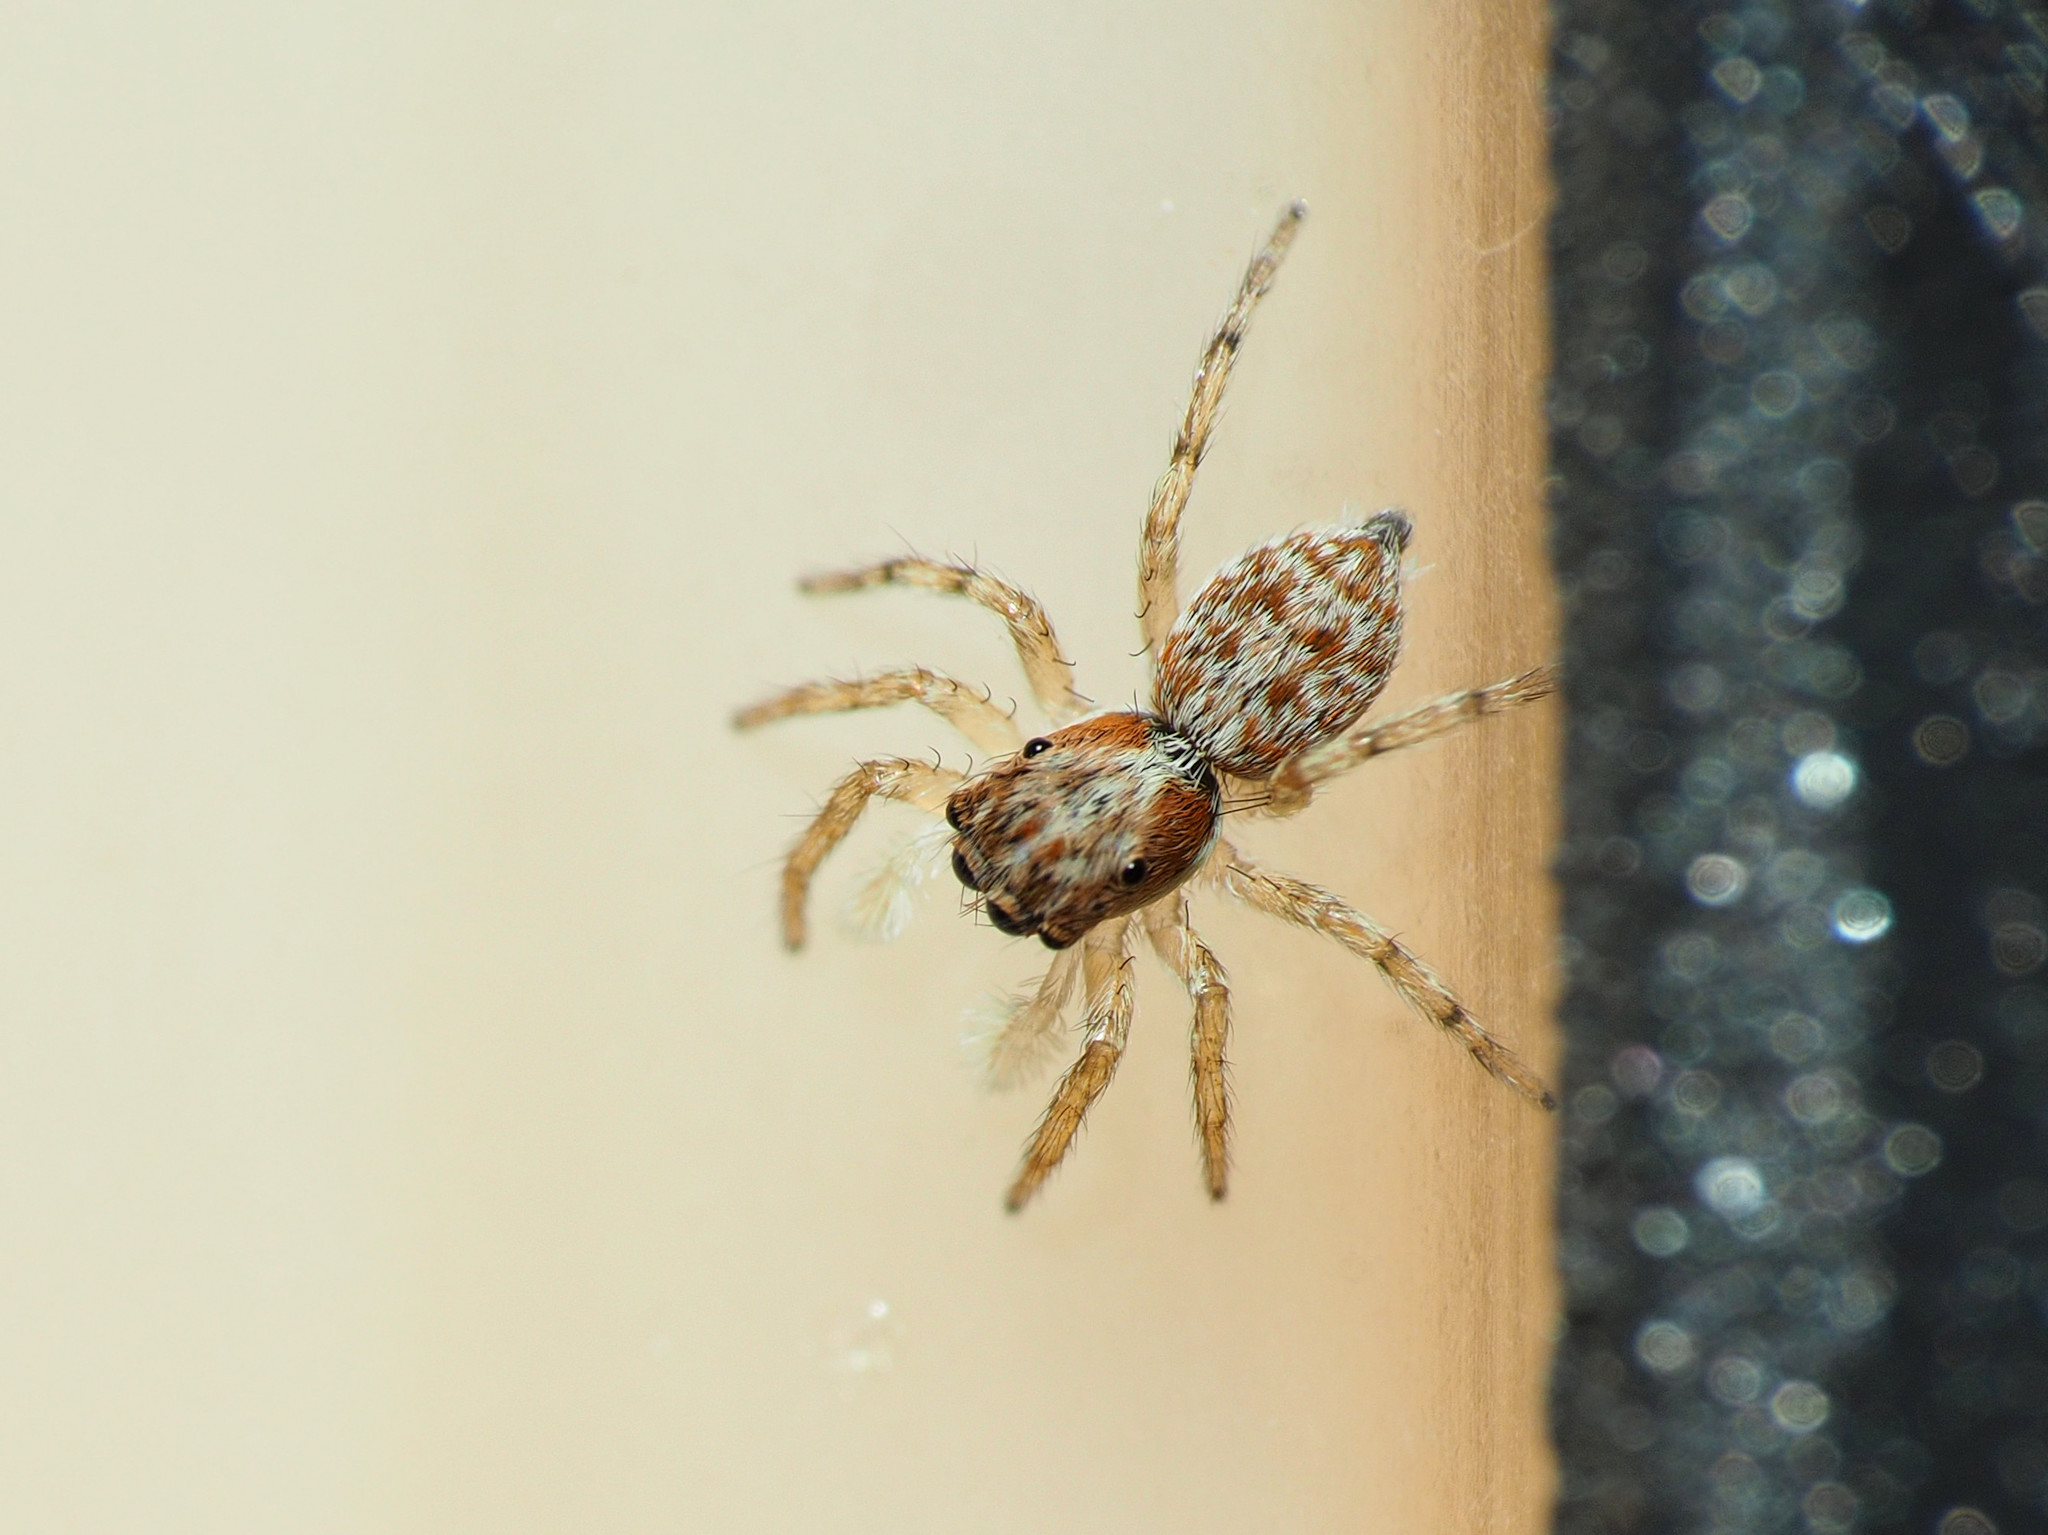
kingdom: Animalia
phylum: Arthropoda
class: Arachnida
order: Araneae
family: Salticidae
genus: Menemerus
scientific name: Menemerus semilimbatus
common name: Jumping spider
